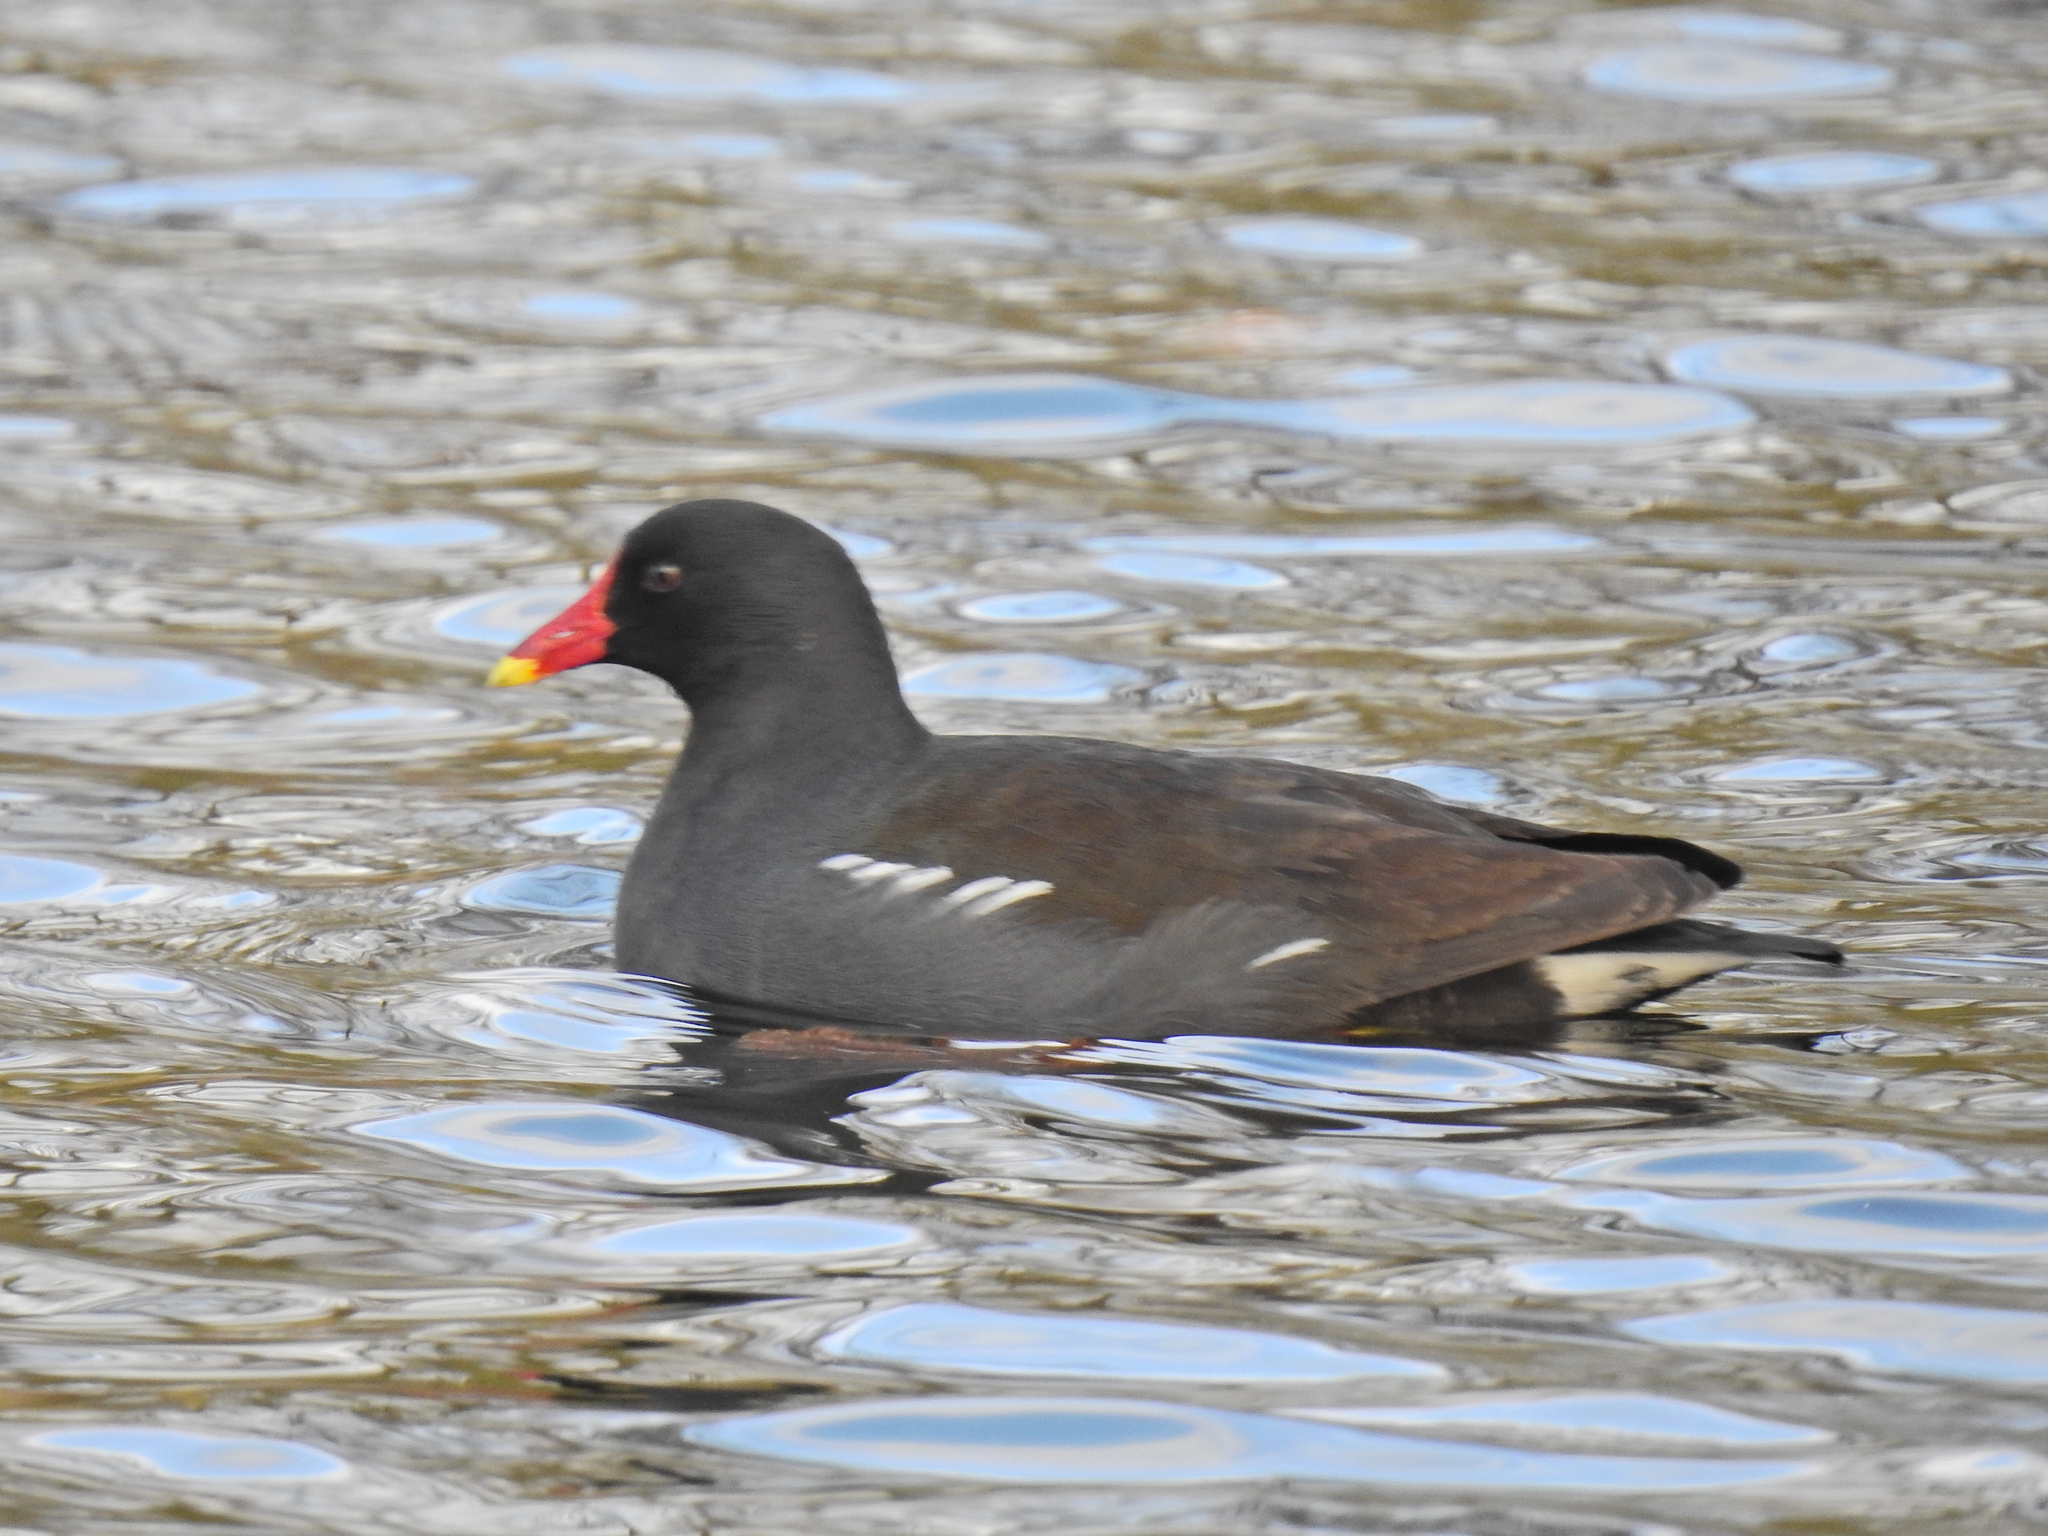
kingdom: Animalia
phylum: Chordata
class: Aves
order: Gruiformes
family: Rallidae
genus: Gallinula
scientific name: Gallinula chloropus
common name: Common moorhen
